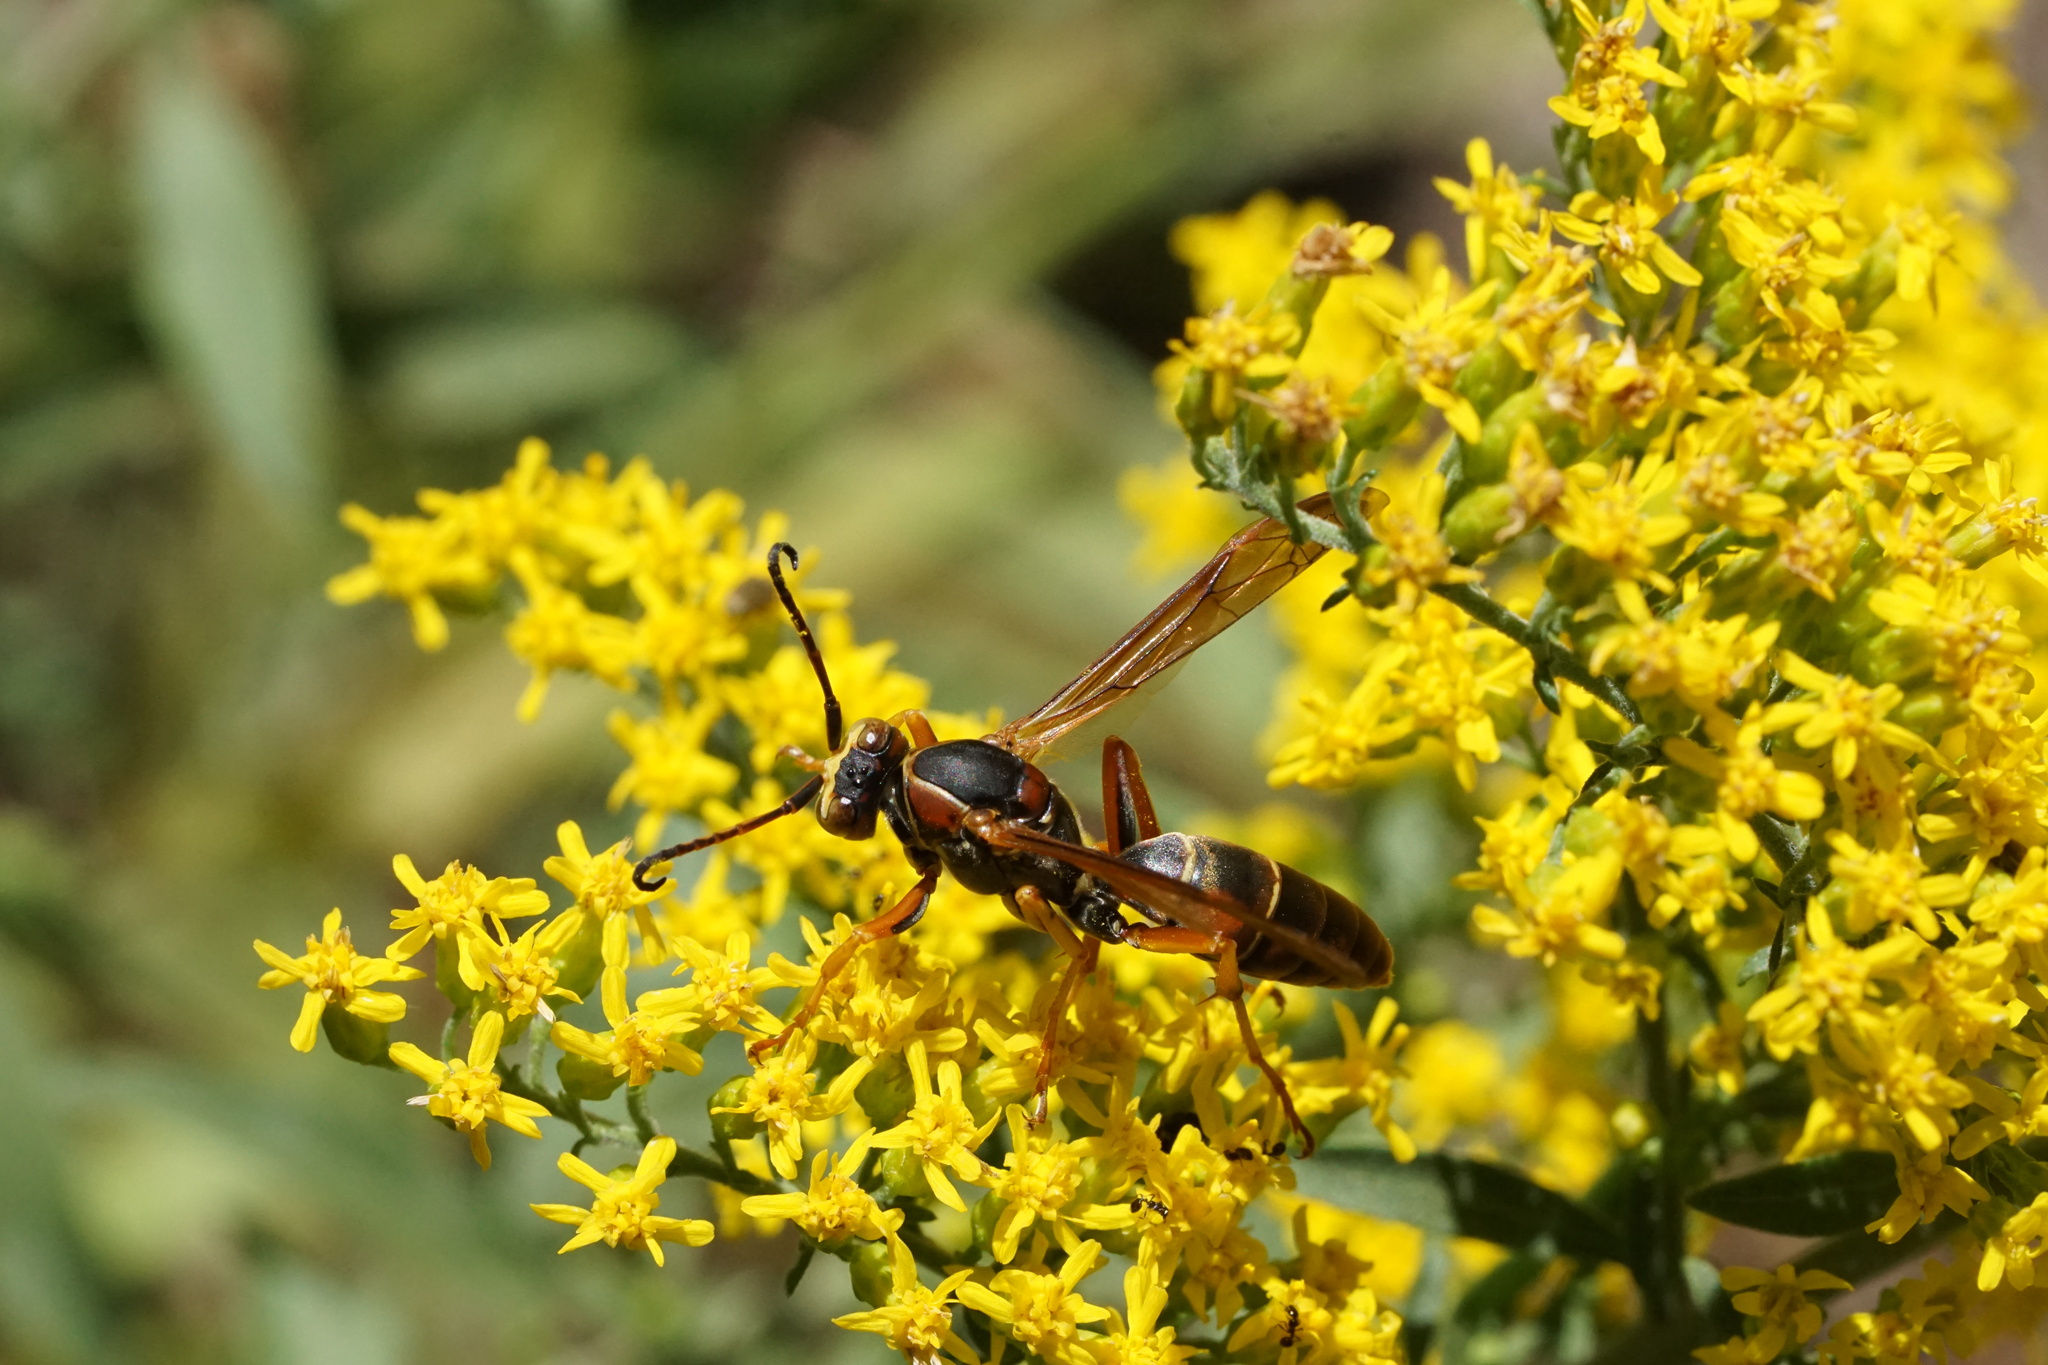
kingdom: Animalia
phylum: Arthropoda
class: Insecta
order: Hymenoptera
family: Eumenidae
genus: Polistes
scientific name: Polistes fuscatus
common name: Dark paper wasp
